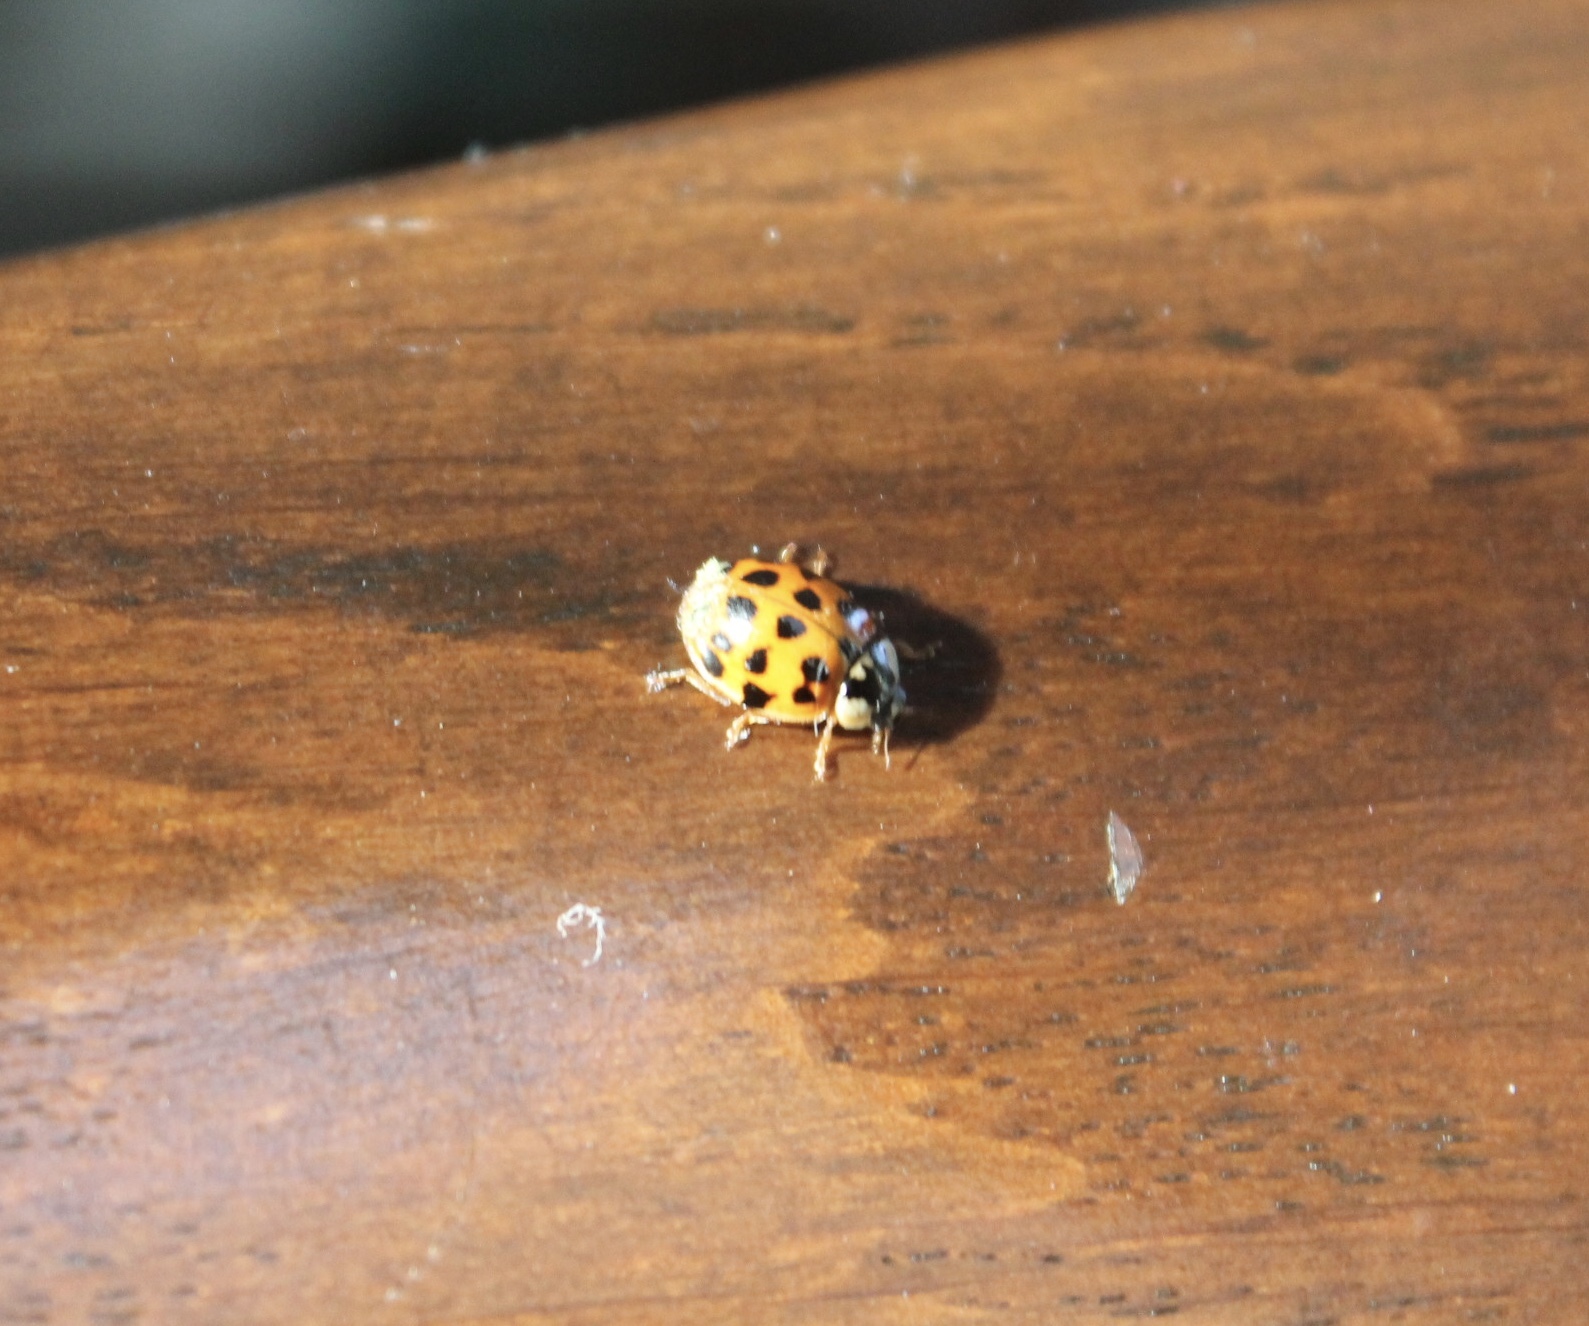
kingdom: Animalia
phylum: Arthropoda
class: Insecta
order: Coleoptera
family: Coccinellidae
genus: Harmonia
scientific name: Harmonia axyridis
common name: Harlequin ladybird
